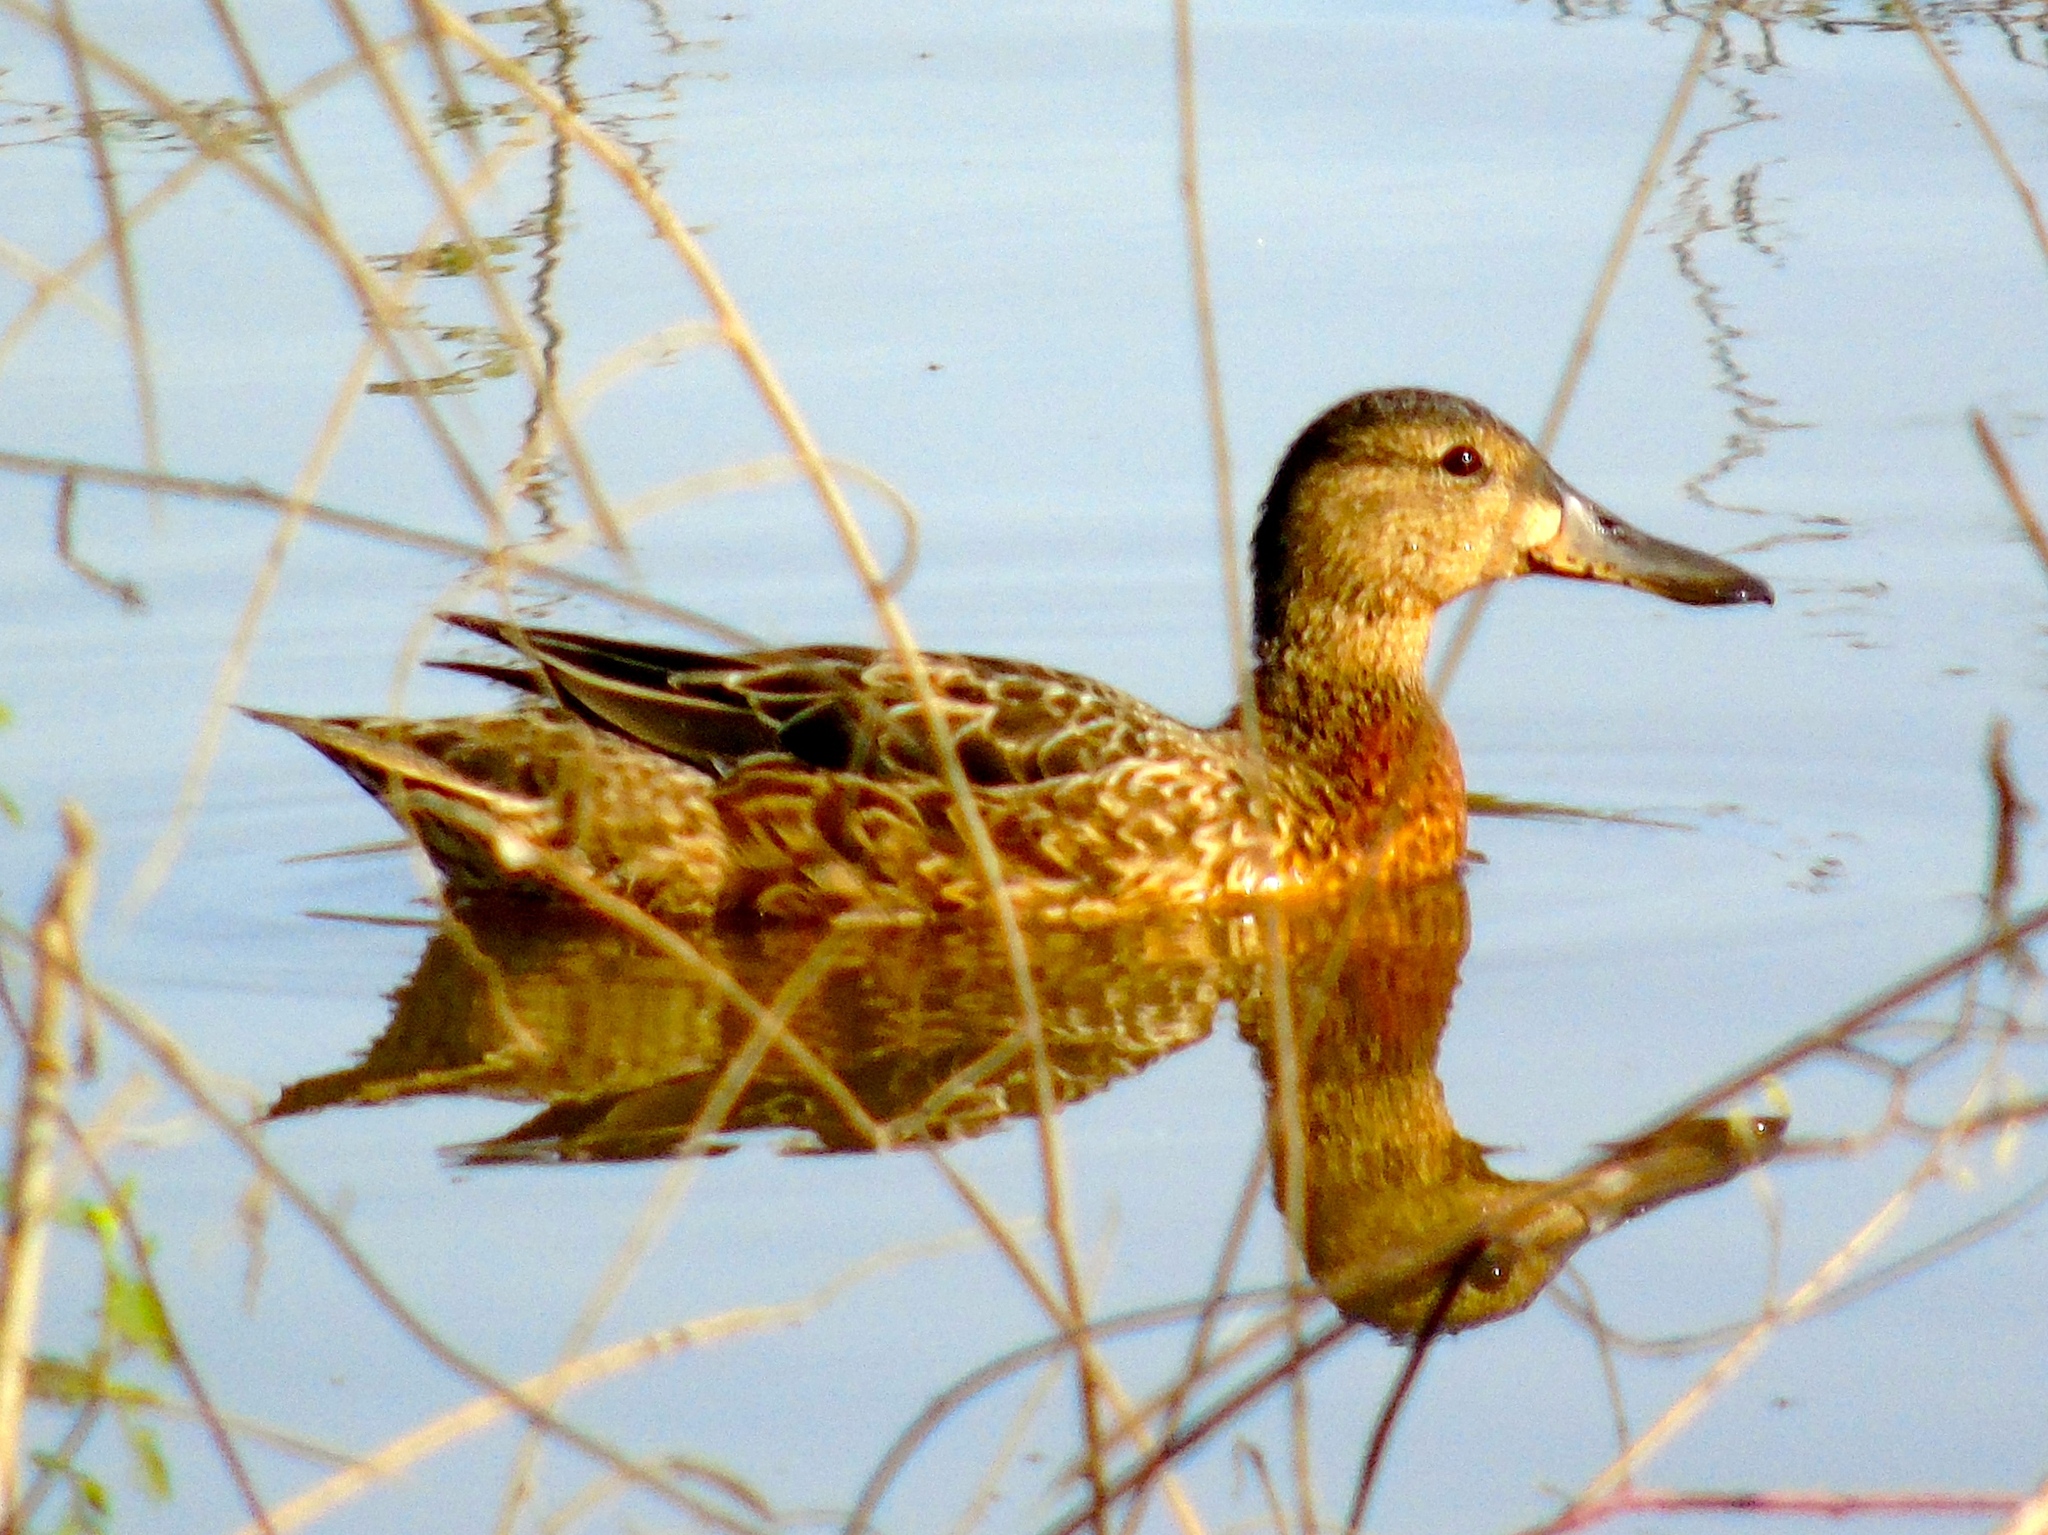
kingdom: Animalia
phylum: Chordata
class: Aves
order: Anseriformes
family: Anatidae
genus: Spatula
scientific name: Spatula cyanoptera
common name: Cinnamon teal
